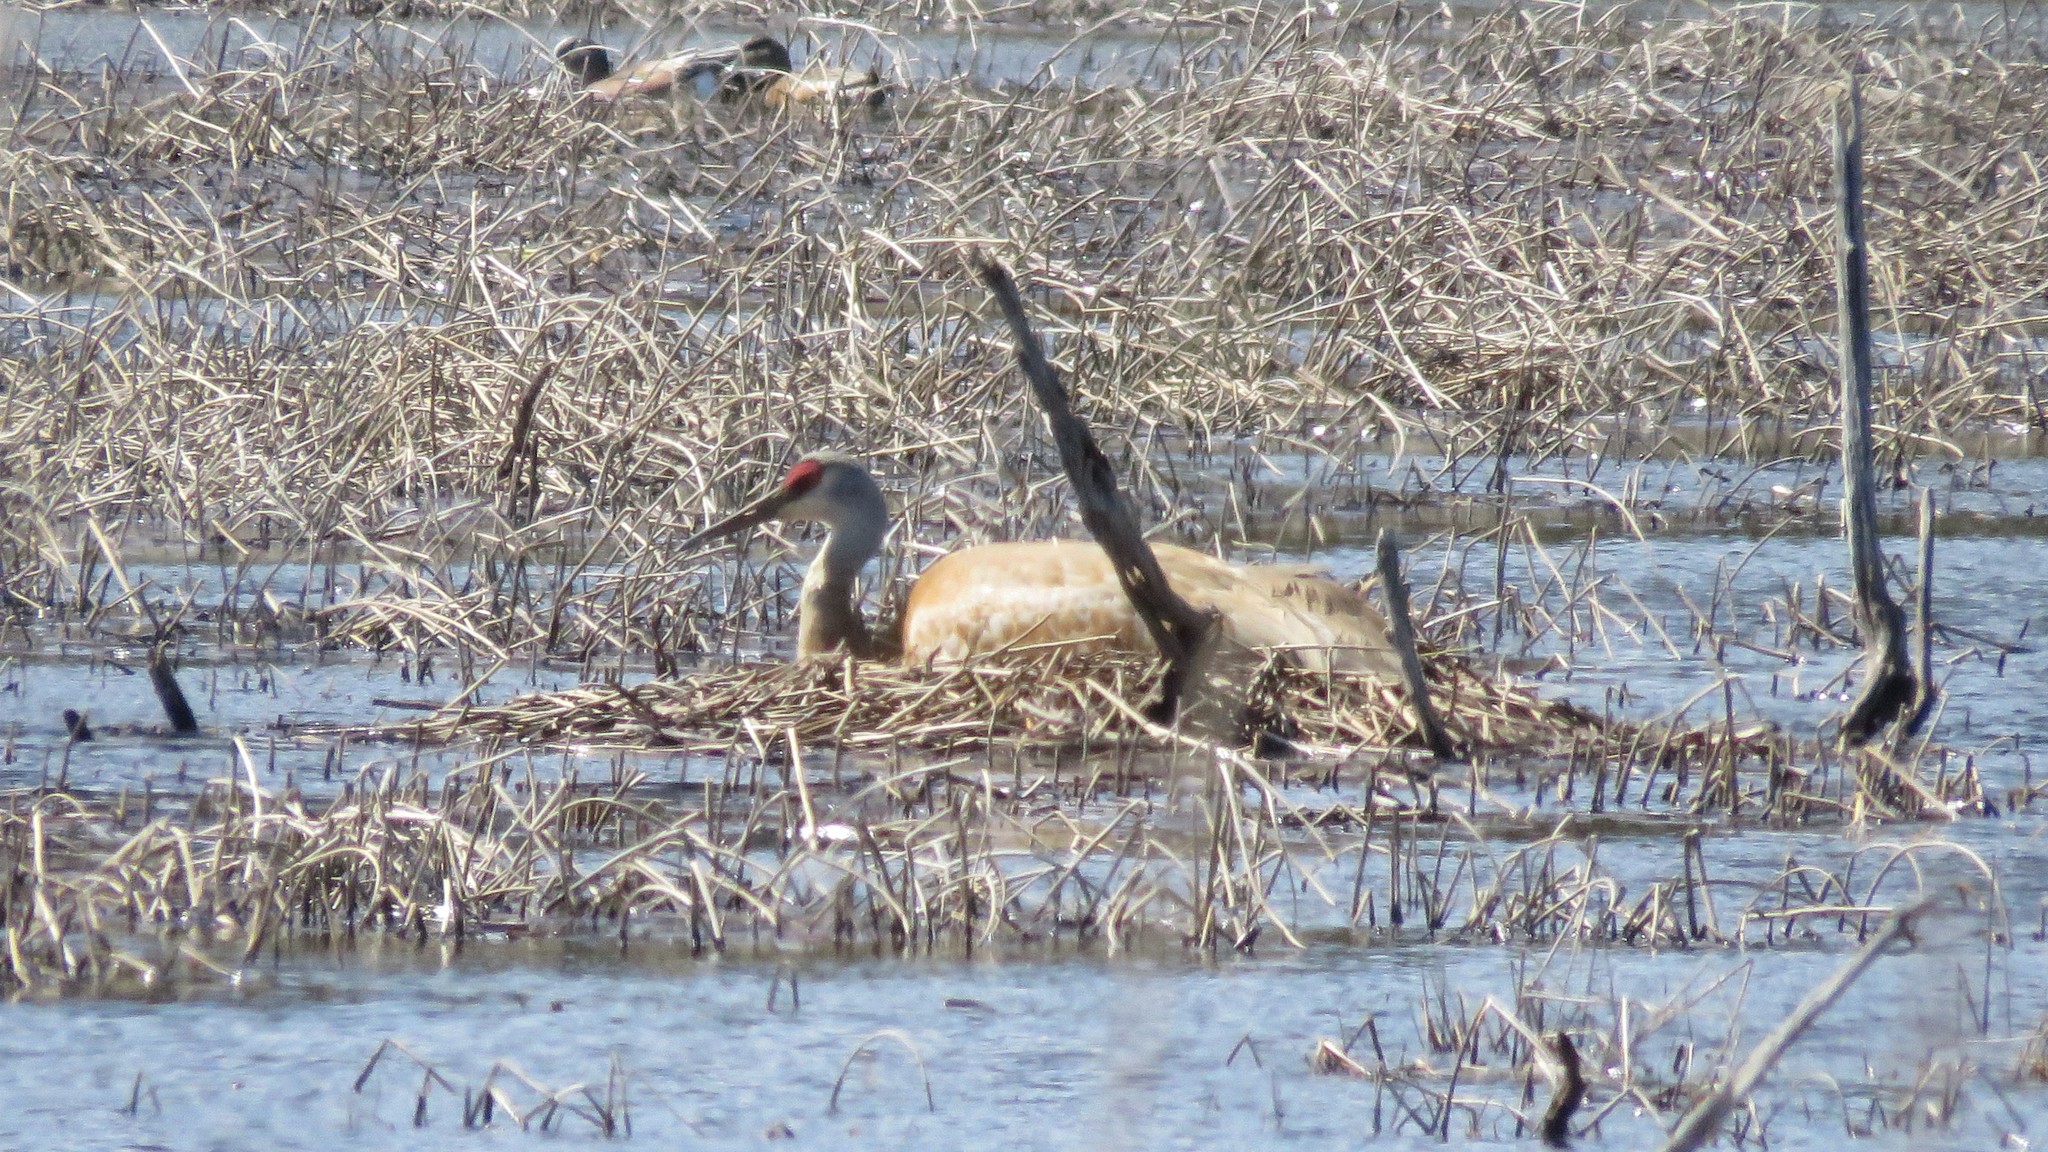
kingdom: Animalia
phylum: Chordata
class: Aves
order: Gruiformes
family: Gruidae
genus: Grus
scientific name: Grus canadensis
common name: Sandhill crane
